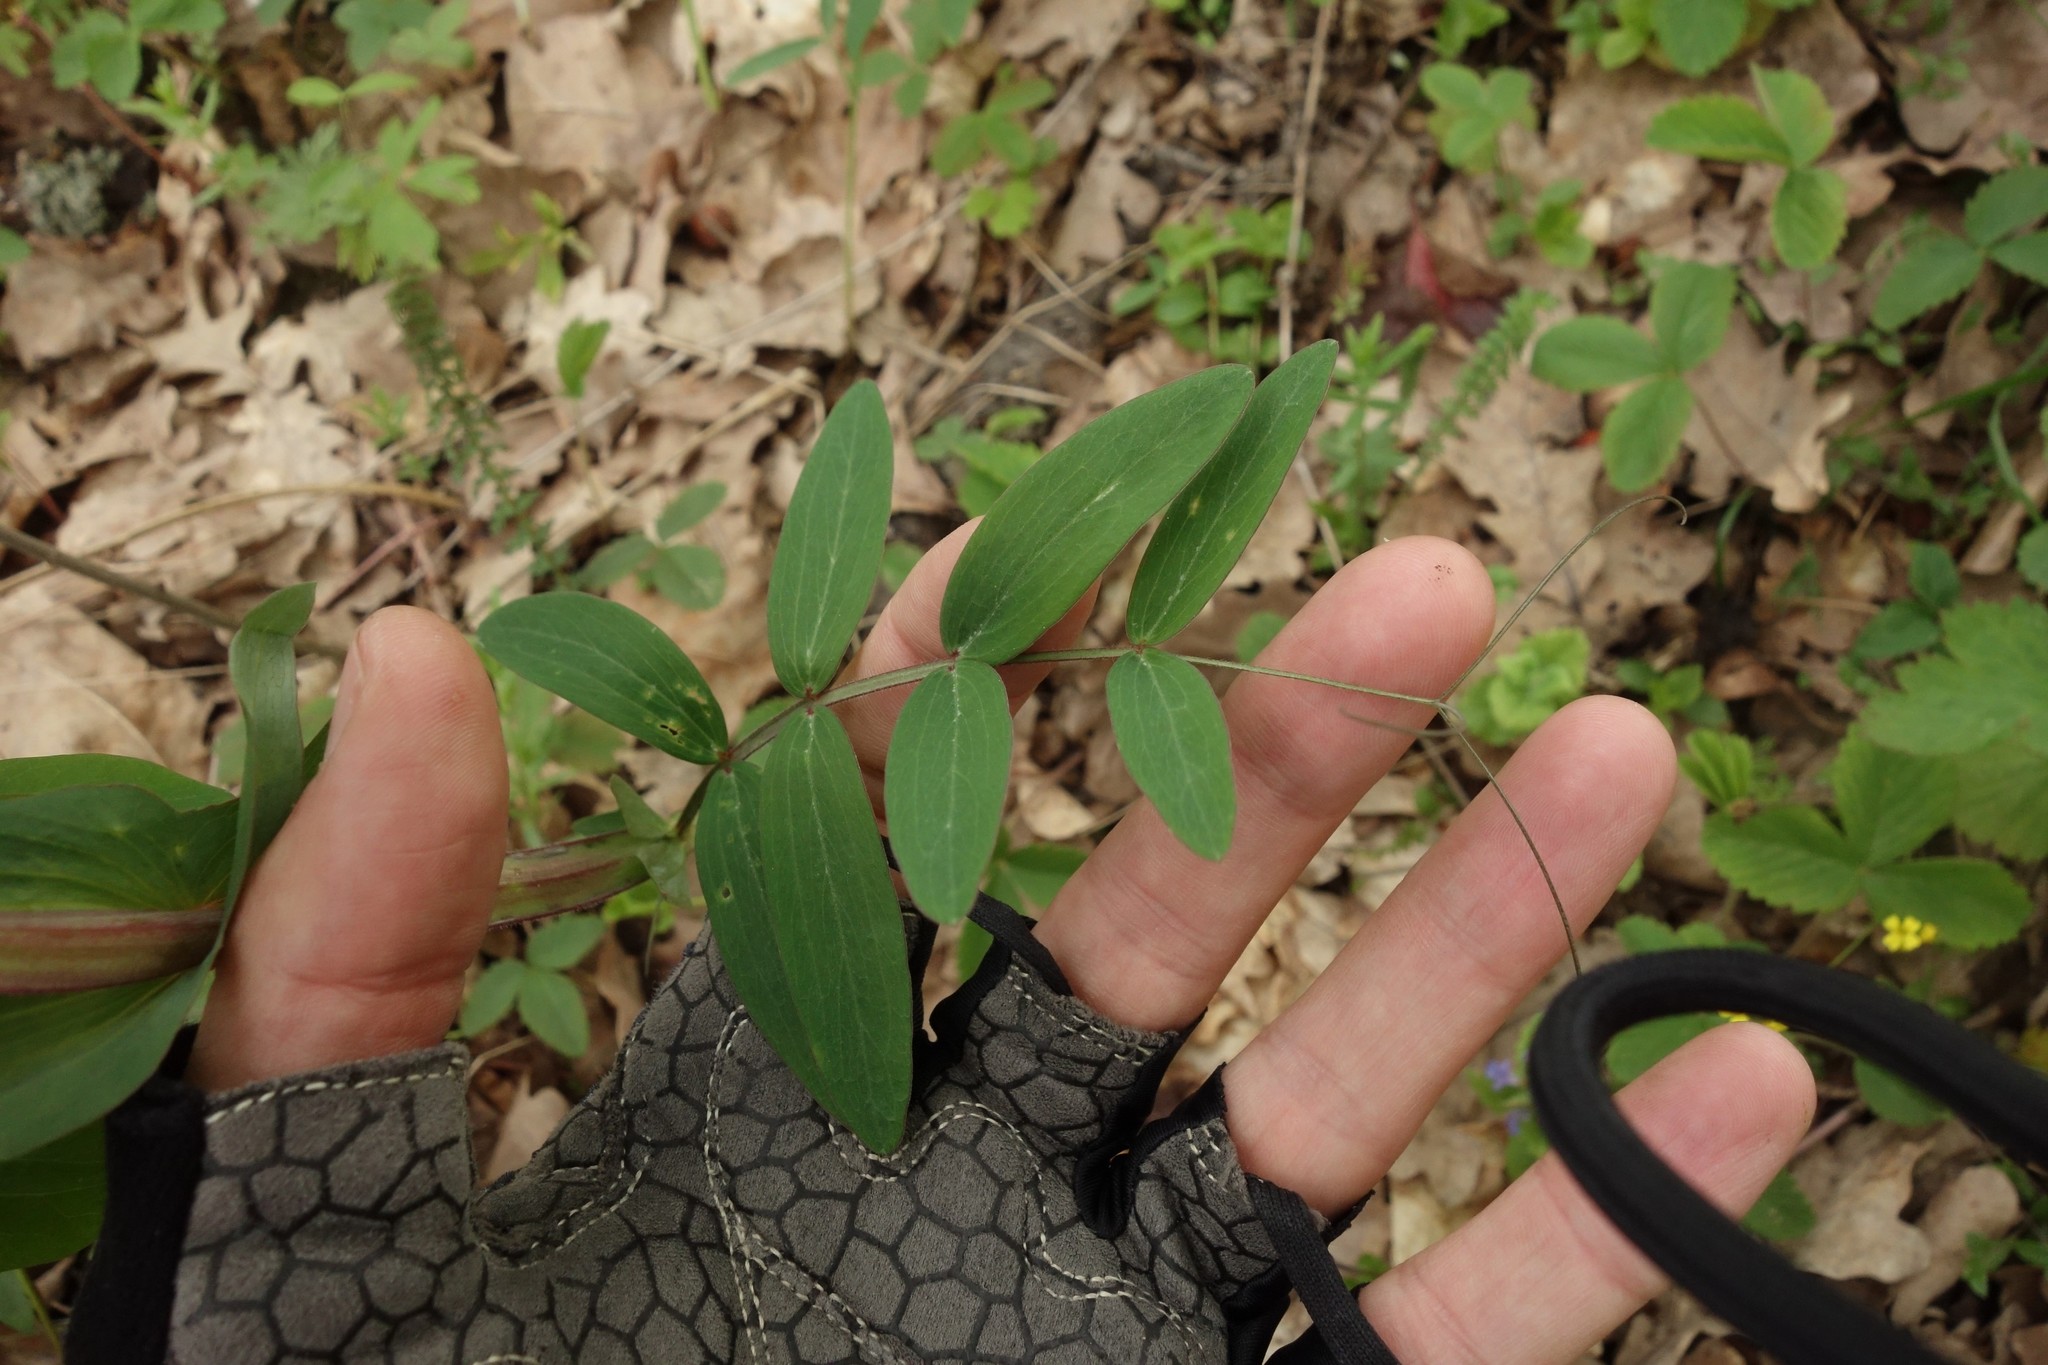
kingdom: Plantae
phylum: Tracheophyta
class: Magnoliopsida
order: Fabales
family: Fabaceae
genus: Lathyrus
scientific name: Lathyrus pisiformis
